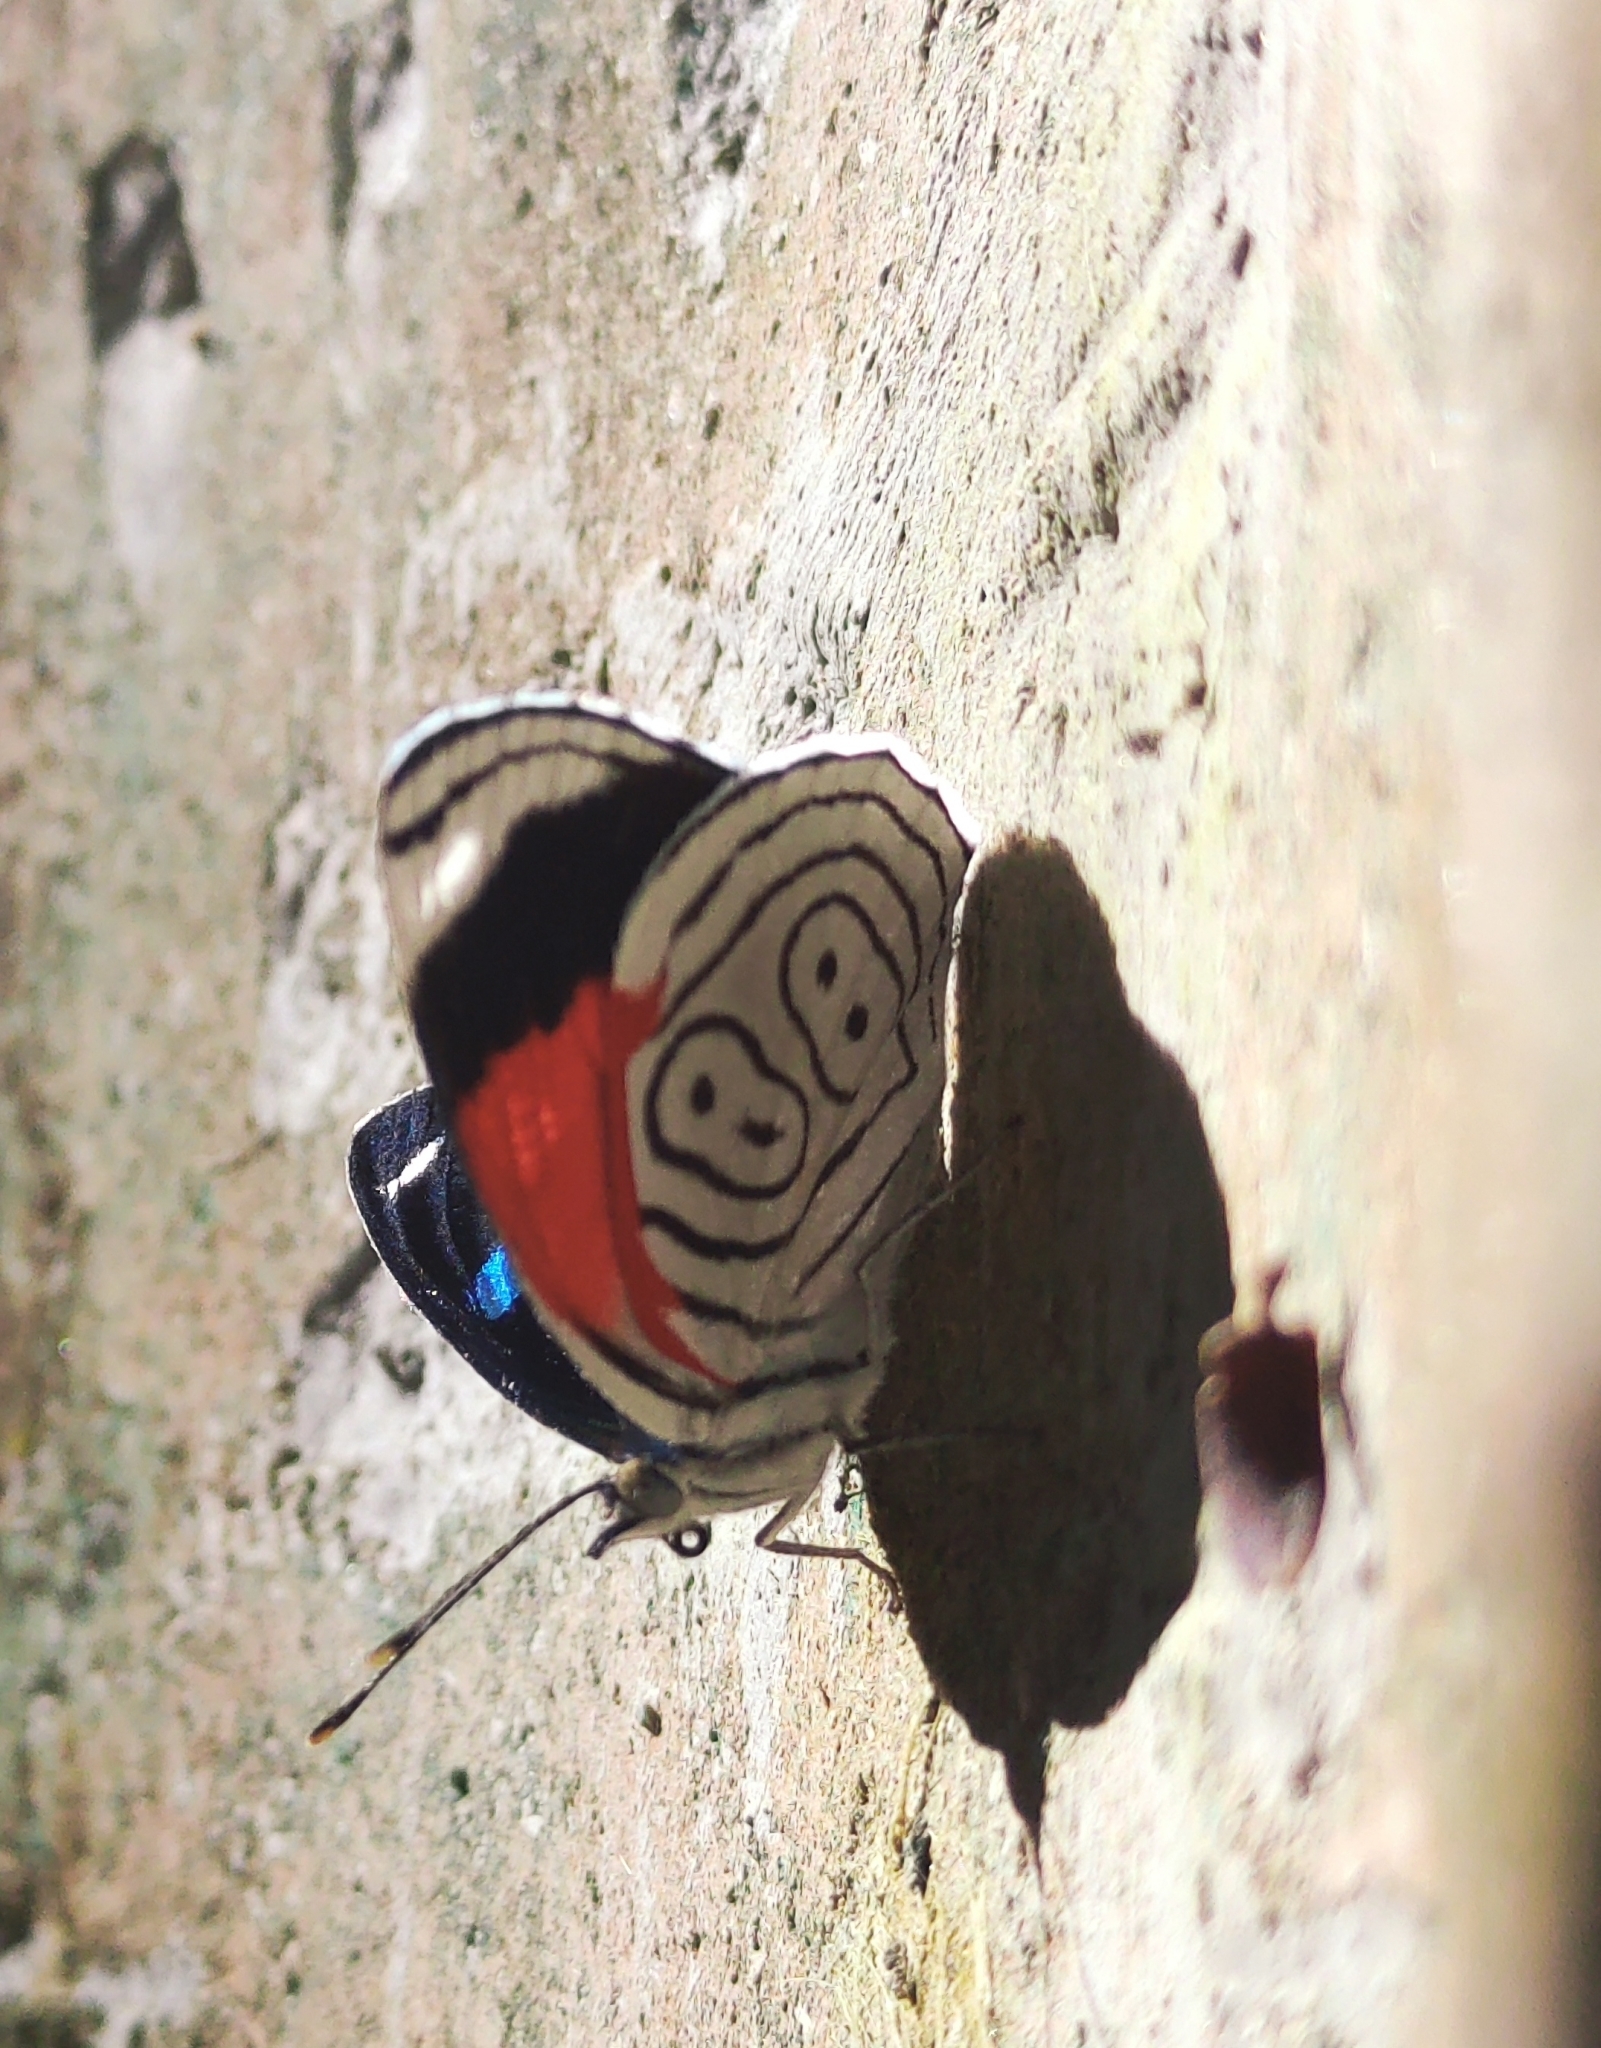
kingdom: Animalia
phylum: Arthropoda
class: Insecta
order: Lepidoptera
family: Nymphalidae
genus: Diaethria
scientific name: Diaethria anna
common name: Anna’s eighty-eight
